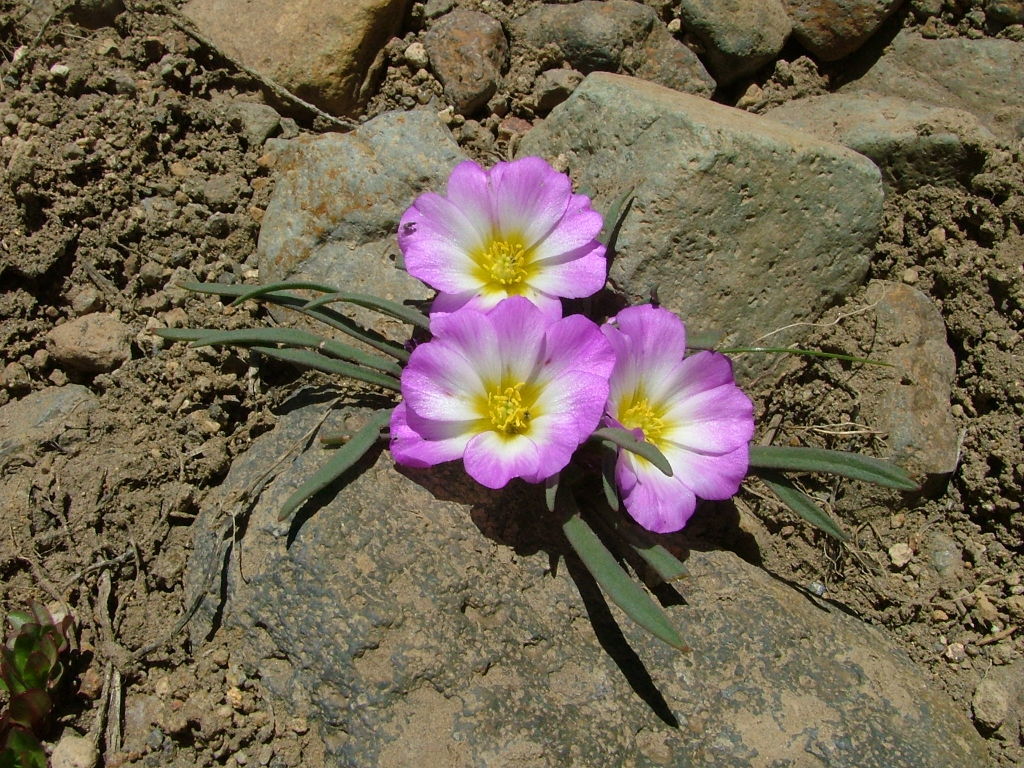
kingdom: Plantae
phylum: Tracheophyta
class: Magnoliopsida
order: Caryophyllales
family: Montiaceae
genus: Calandrinia
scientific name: Calandrinia affinis
